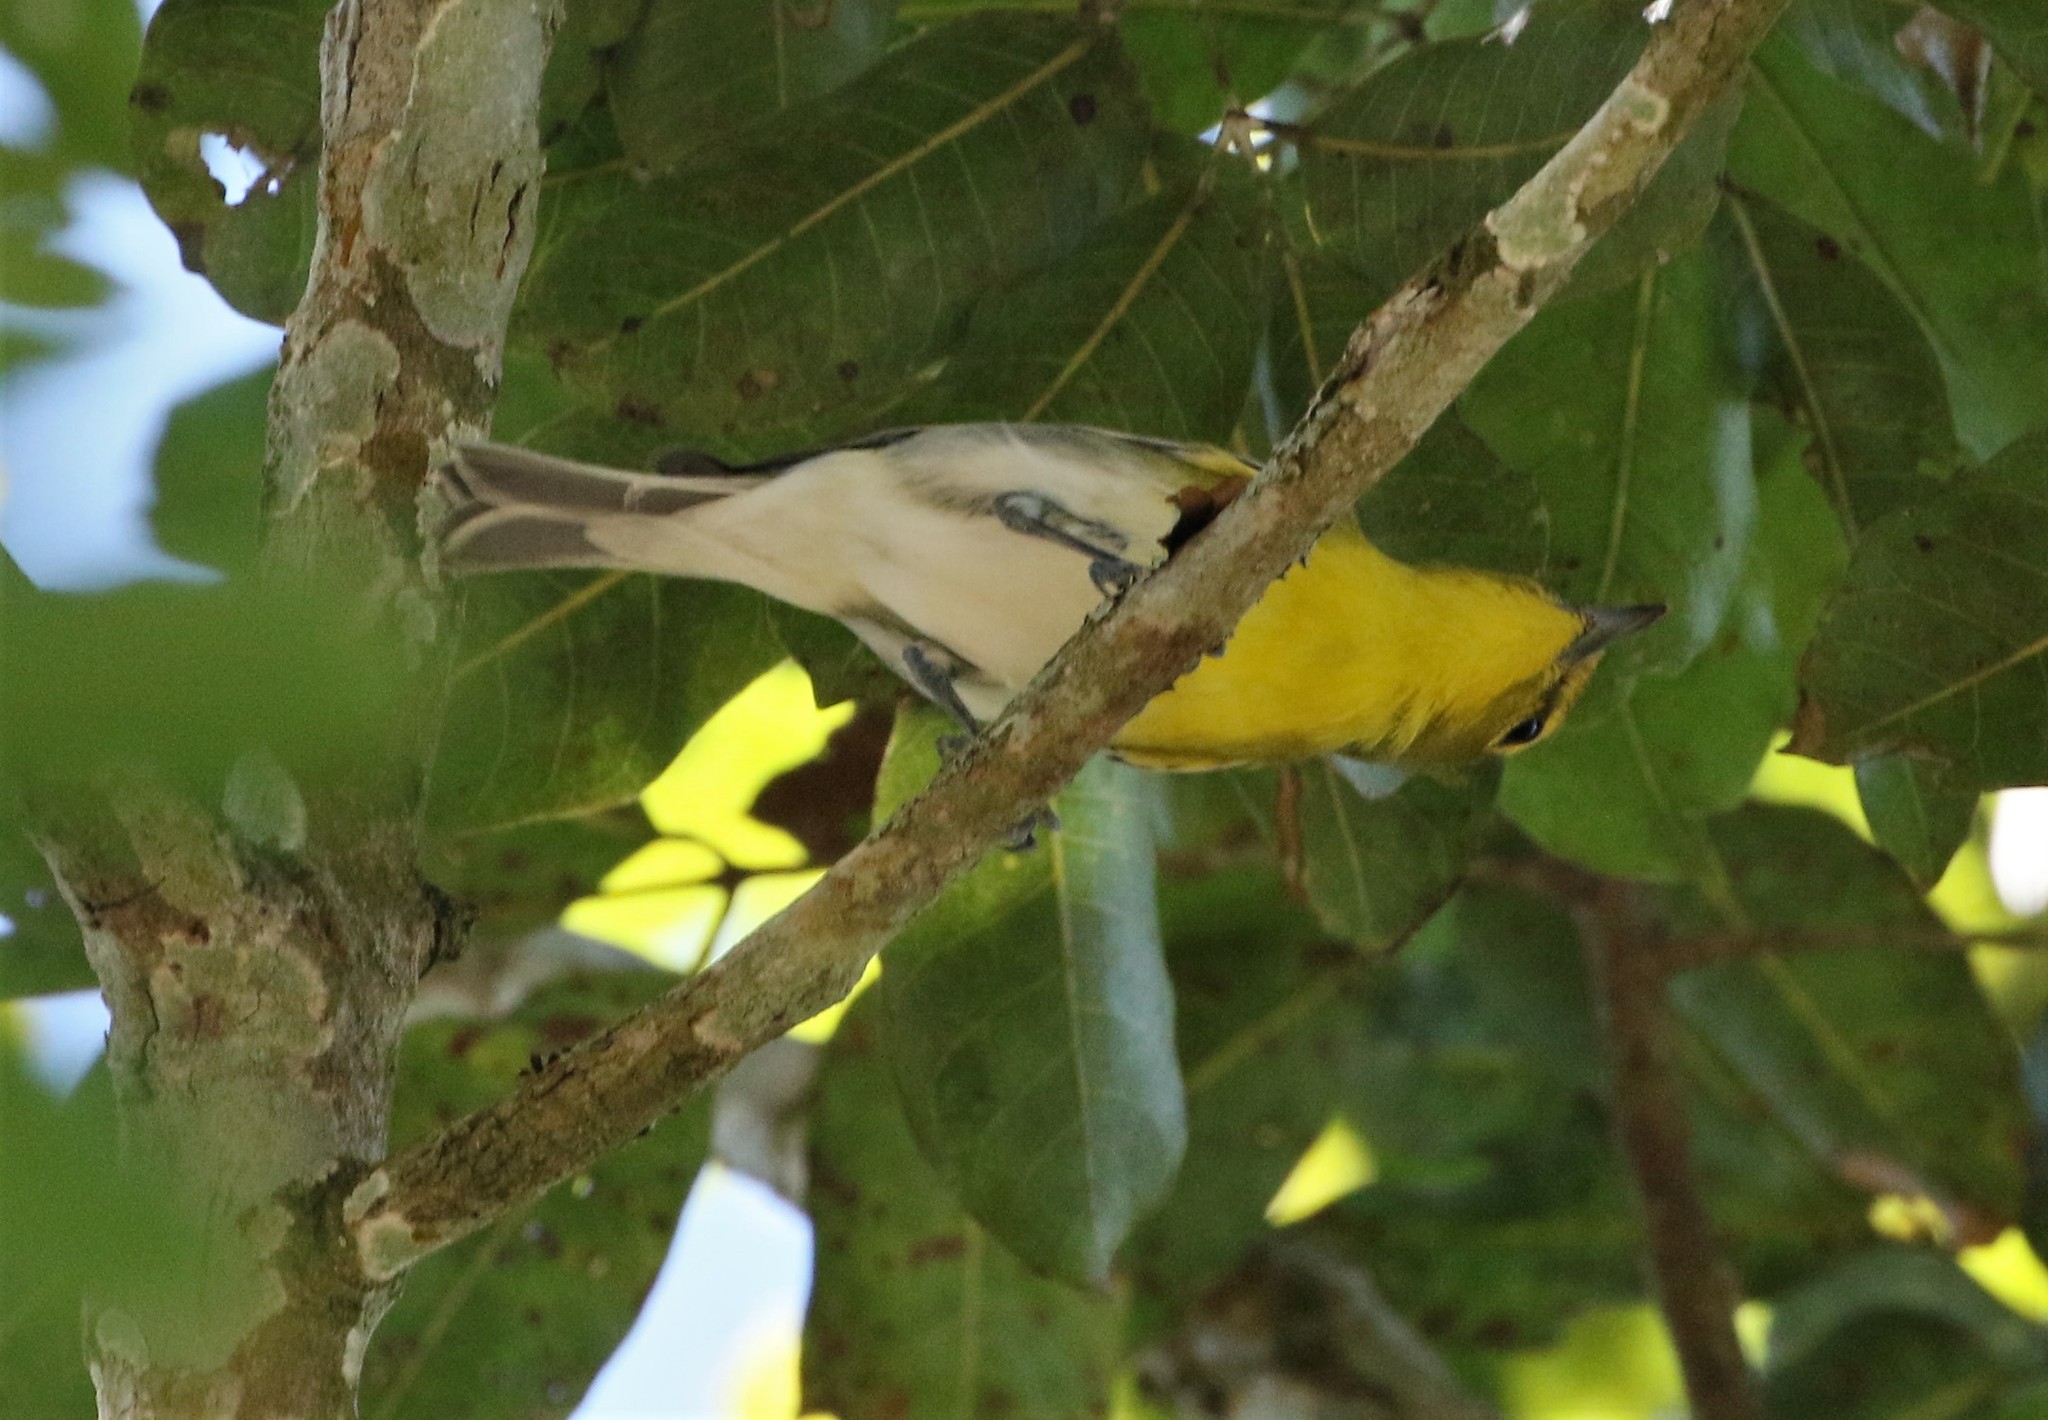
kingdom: Animalia
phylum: Chordata
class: Aves
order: Passeriformes
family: Vireonidae
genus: Vireo
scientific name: Vireo flavifrons
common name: Yellow-throated vireo
